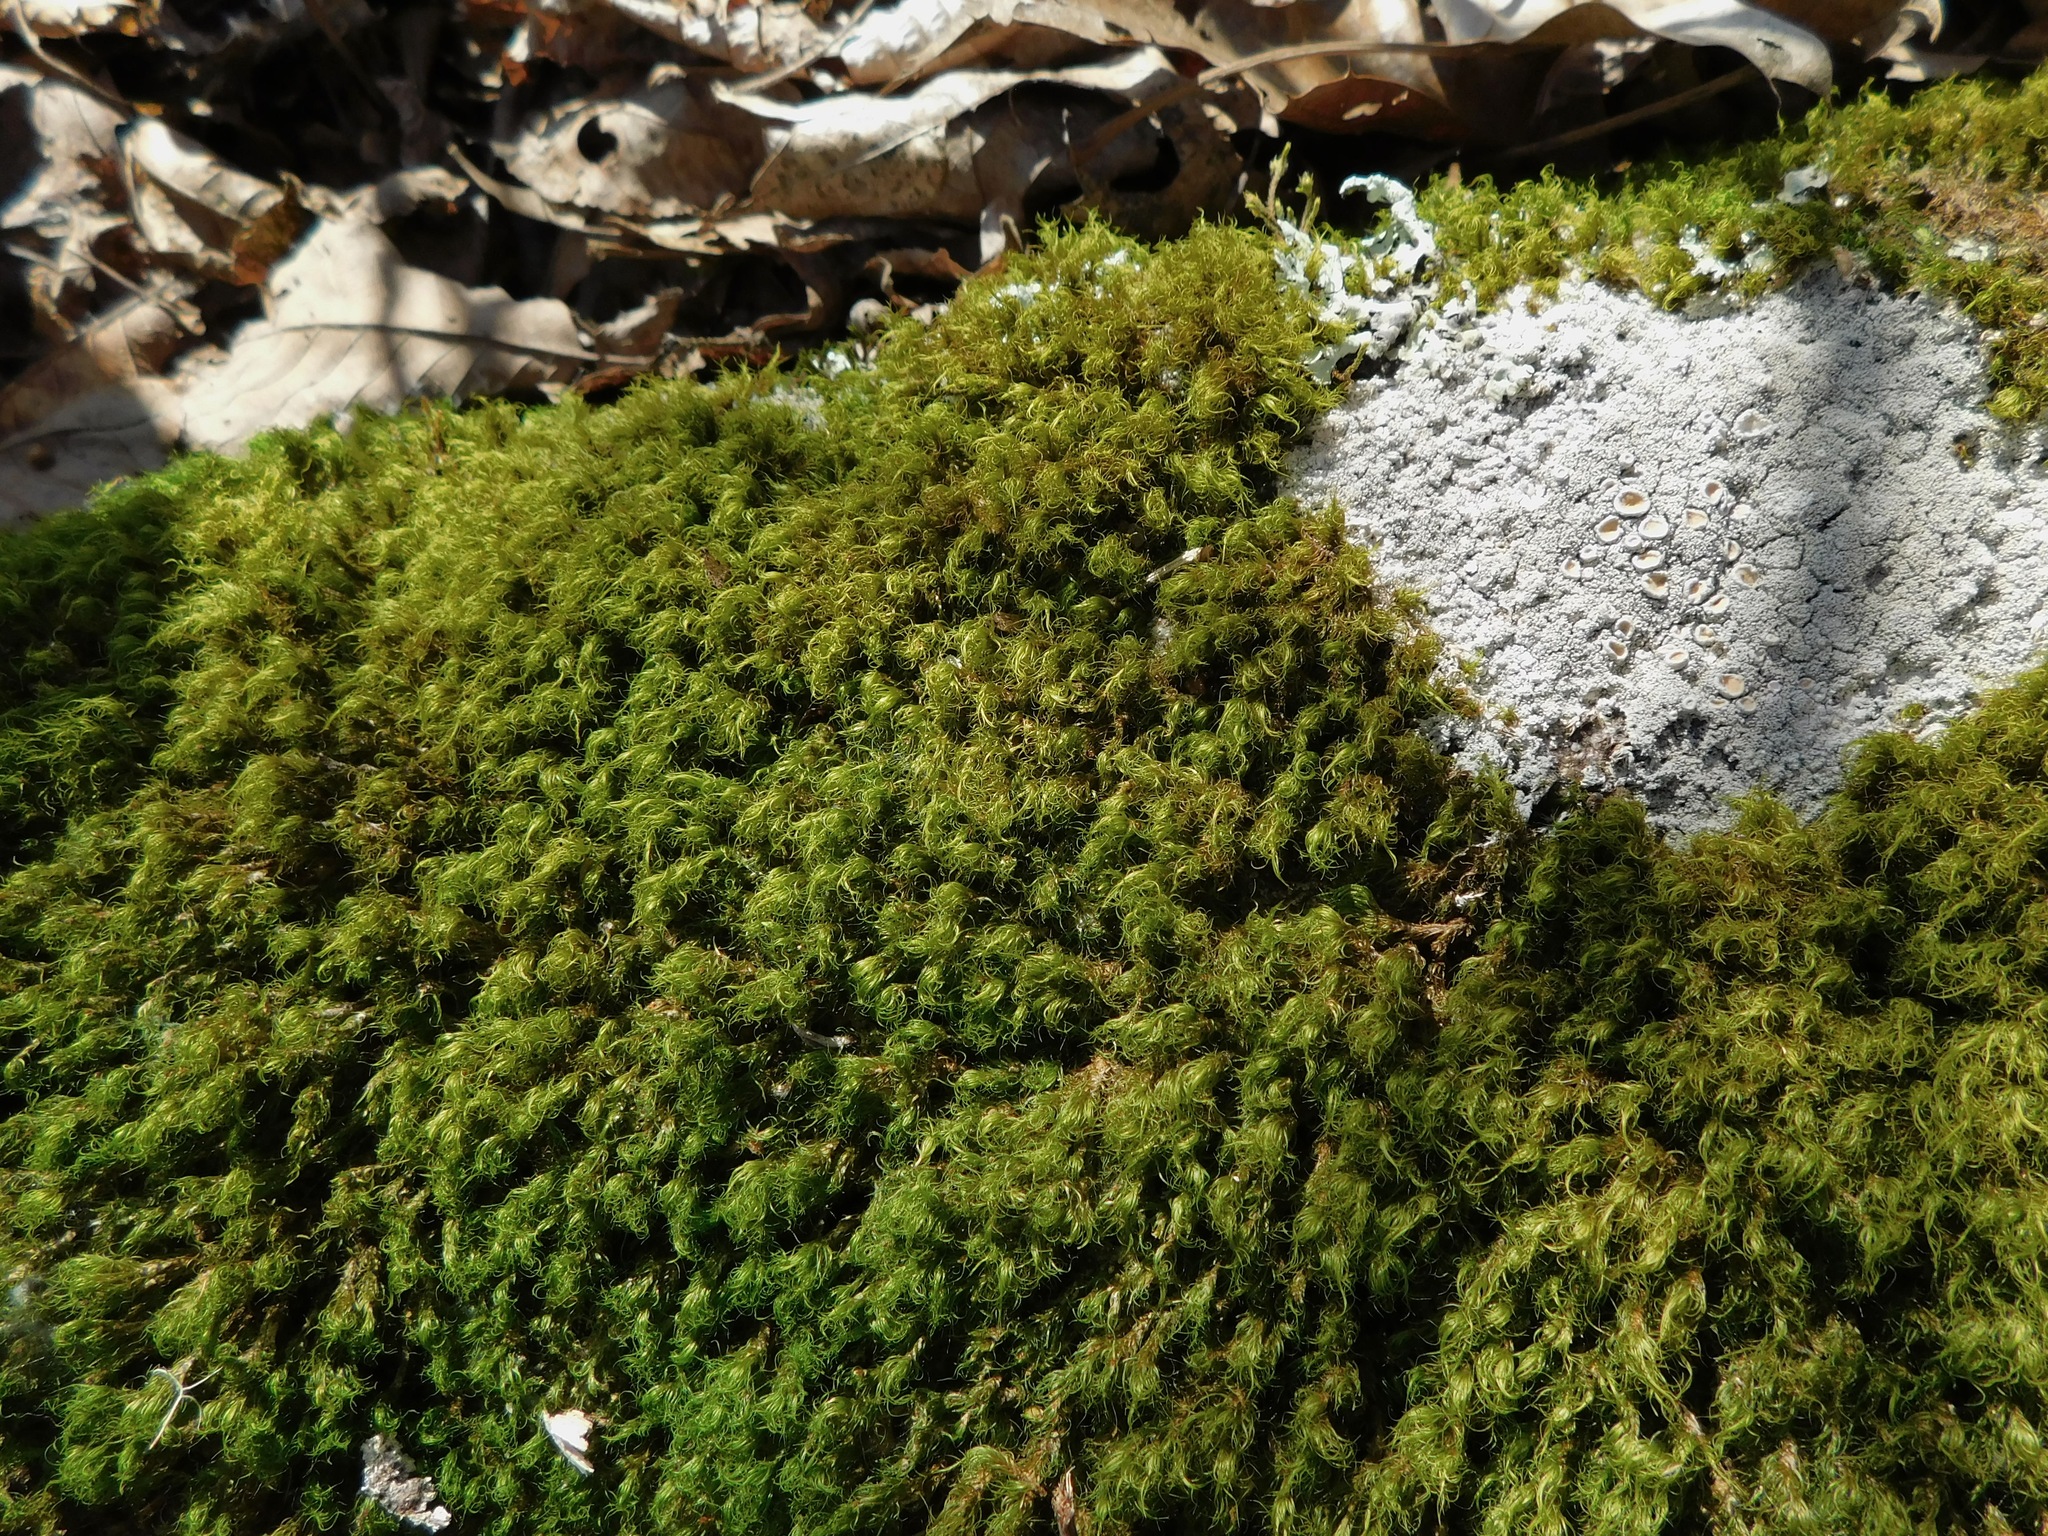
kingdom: Plantae
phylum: Bryophyta
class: Bryopsida
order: Dicranales
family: Dicranaceae
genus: Orthodicranum
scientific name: Orthodicranum montanum
